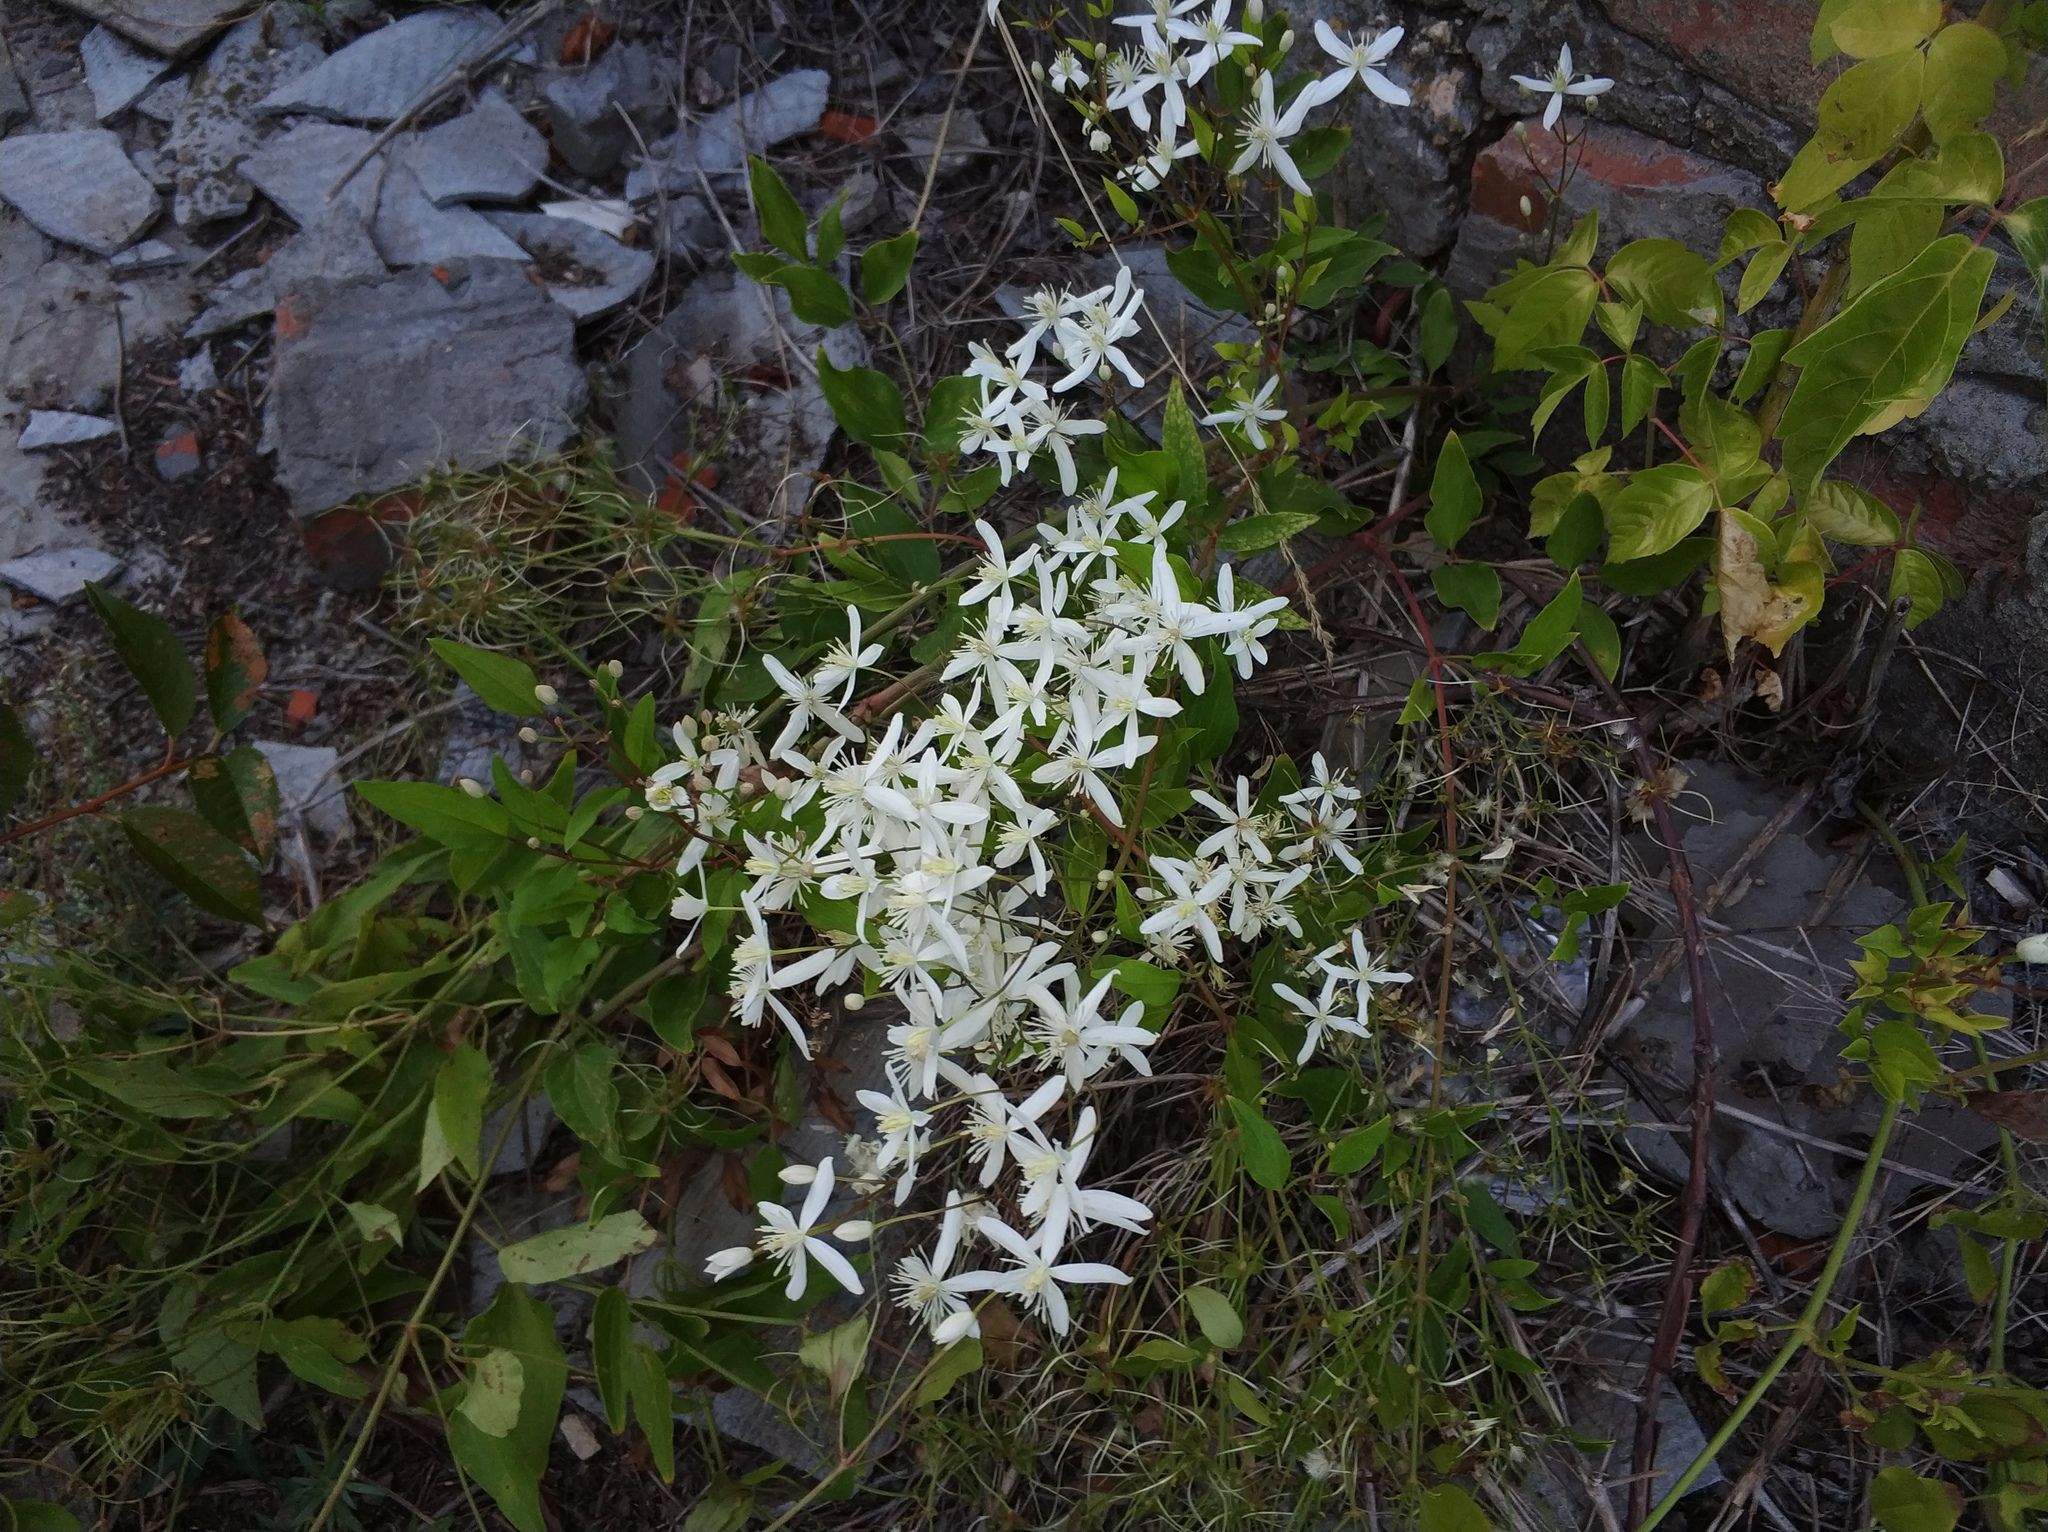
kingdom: Plantae
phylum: Tracheophyta
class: Magnoliopsida
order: Ranunculales
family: Ranunculaceae
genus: Clematis
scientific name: Clematis recta
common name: Ground clematis
